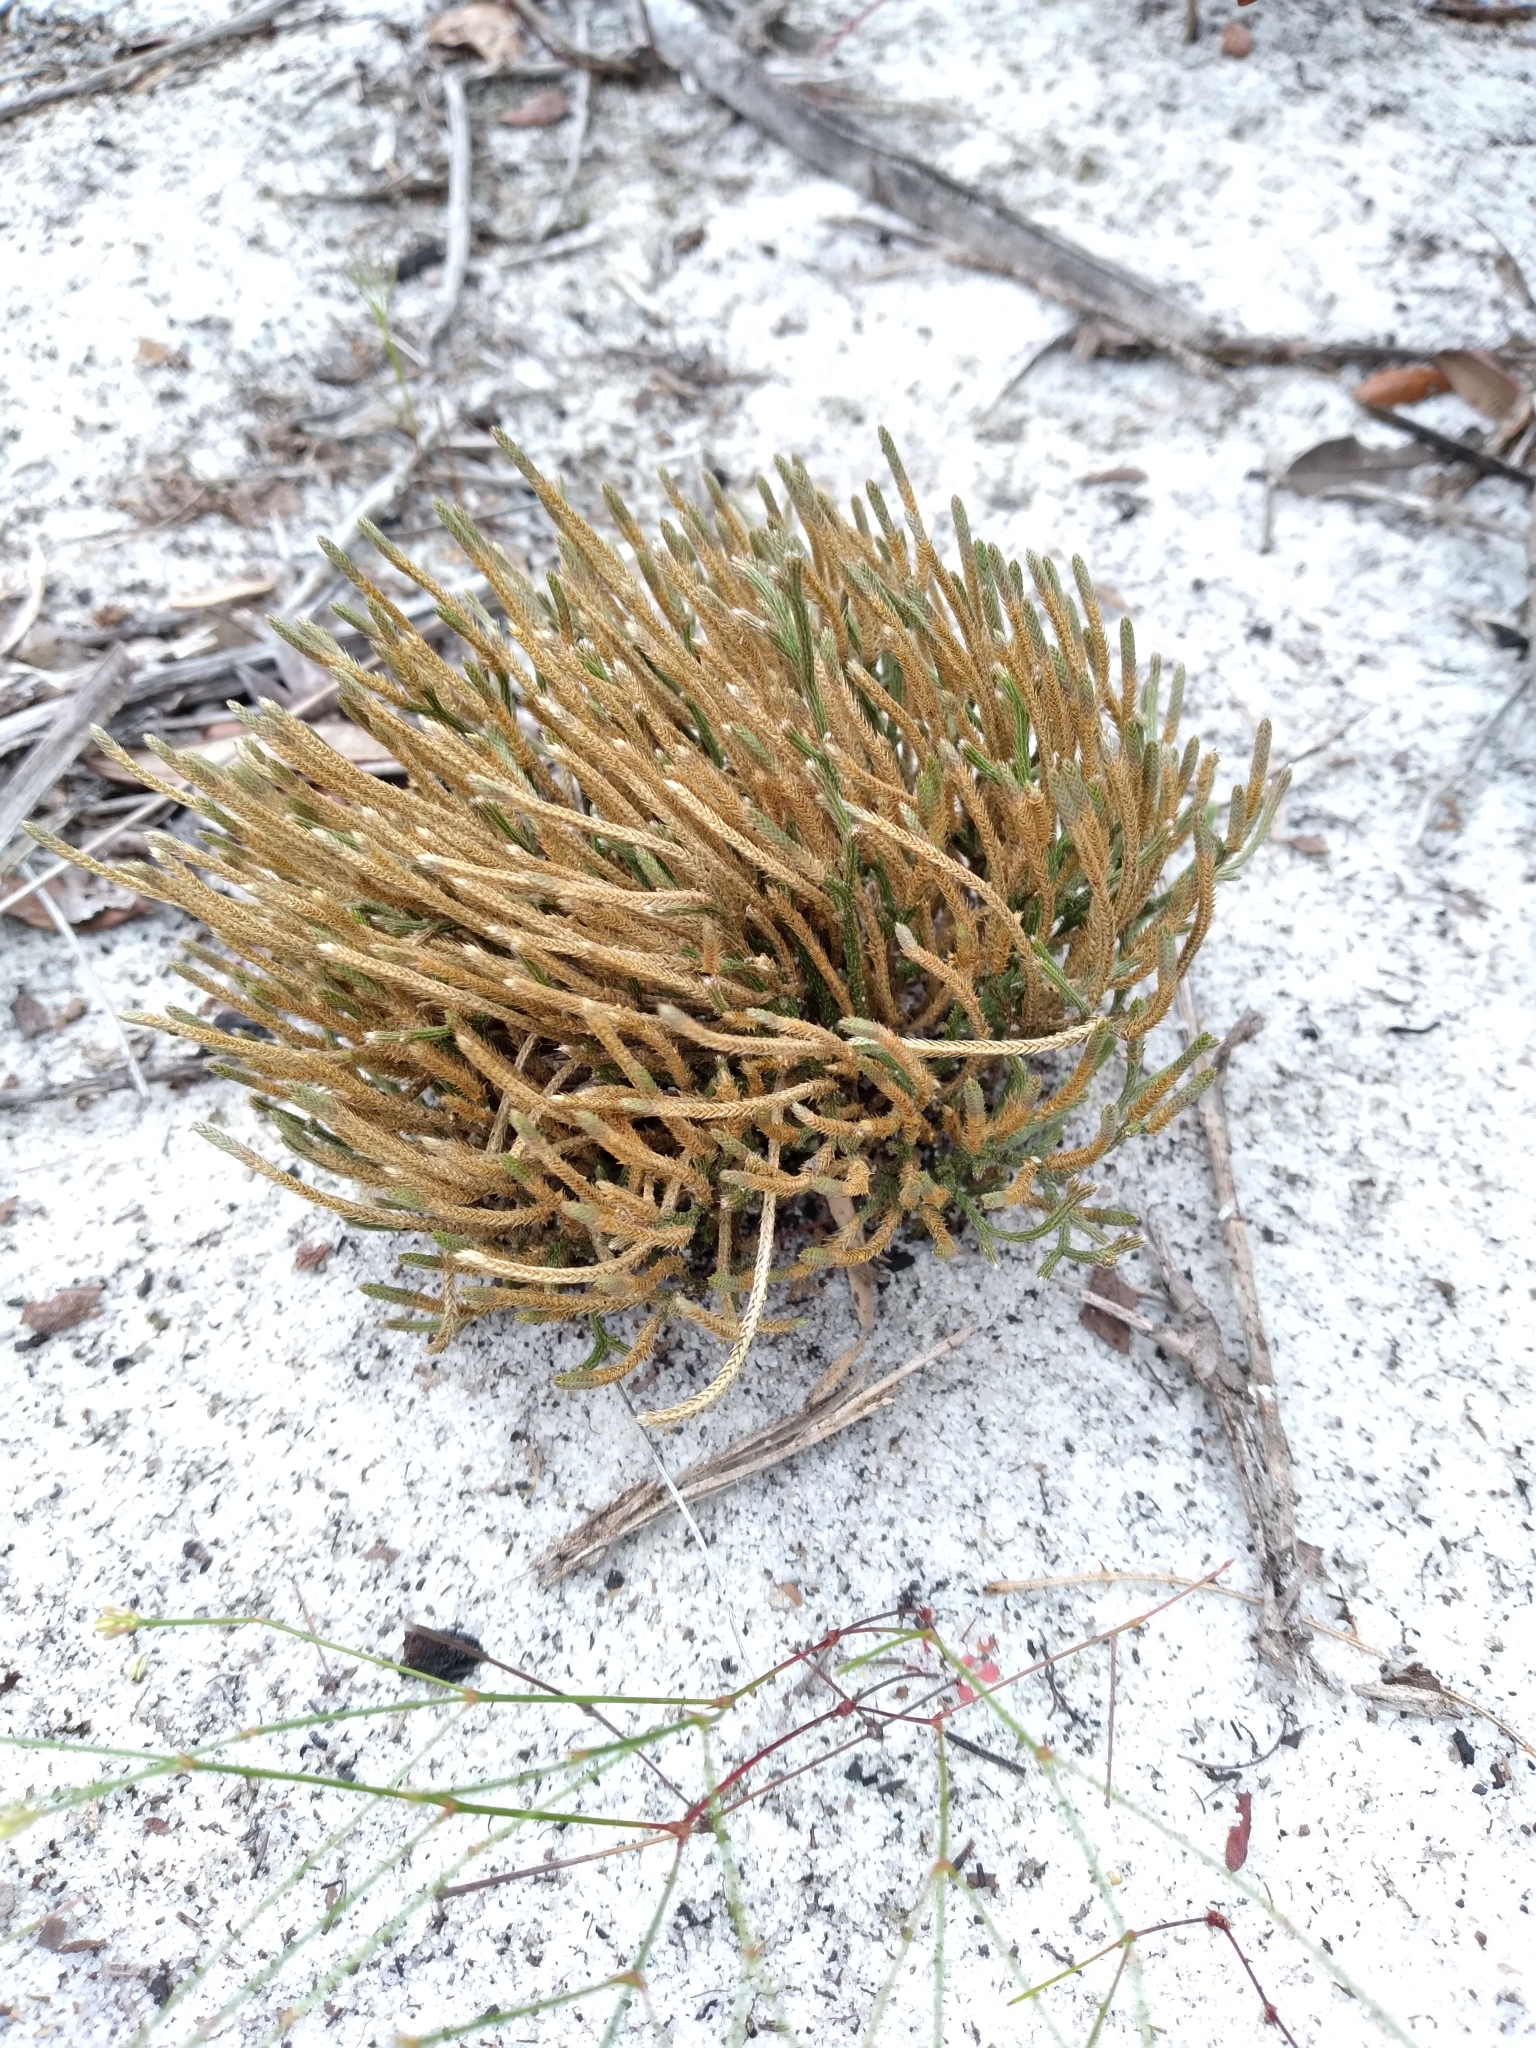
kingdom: Plantae
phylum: Tracheophyta
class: Lycopodiopsida
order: Selaginellales
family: Selaginellaceae
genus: Selaginella
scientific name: Selaginella arenicola
